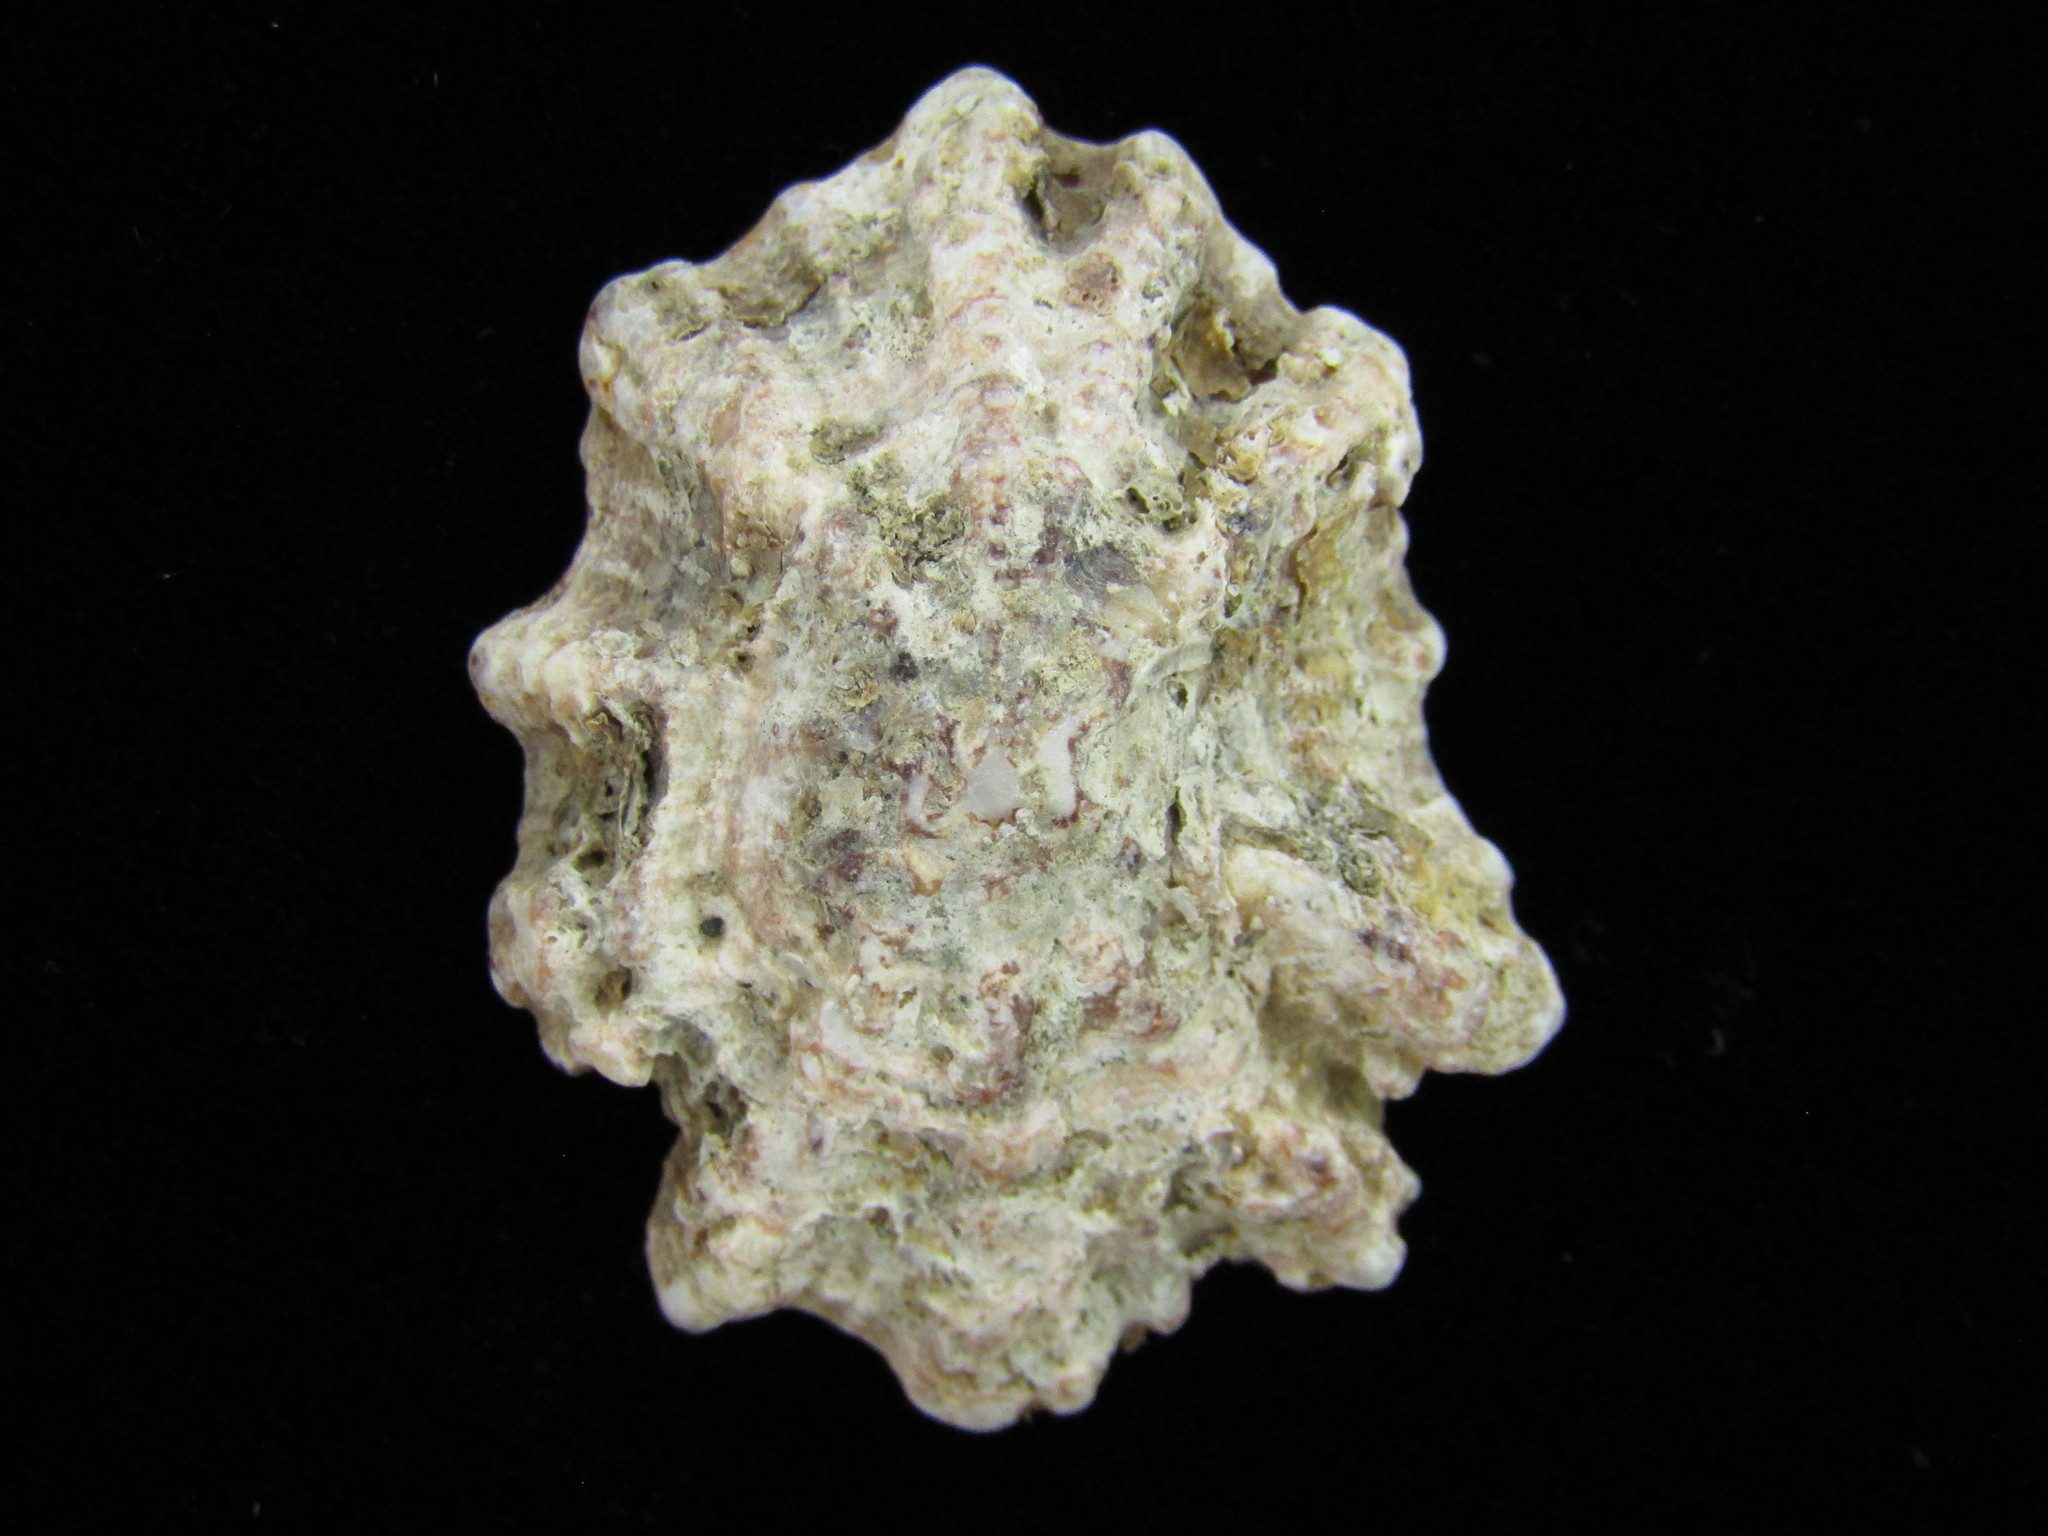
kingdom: Animalia
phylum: Mollusca
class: Gastropoda
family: Patellidae
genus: Scutellastra
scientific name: Scutellastra flexuosa
